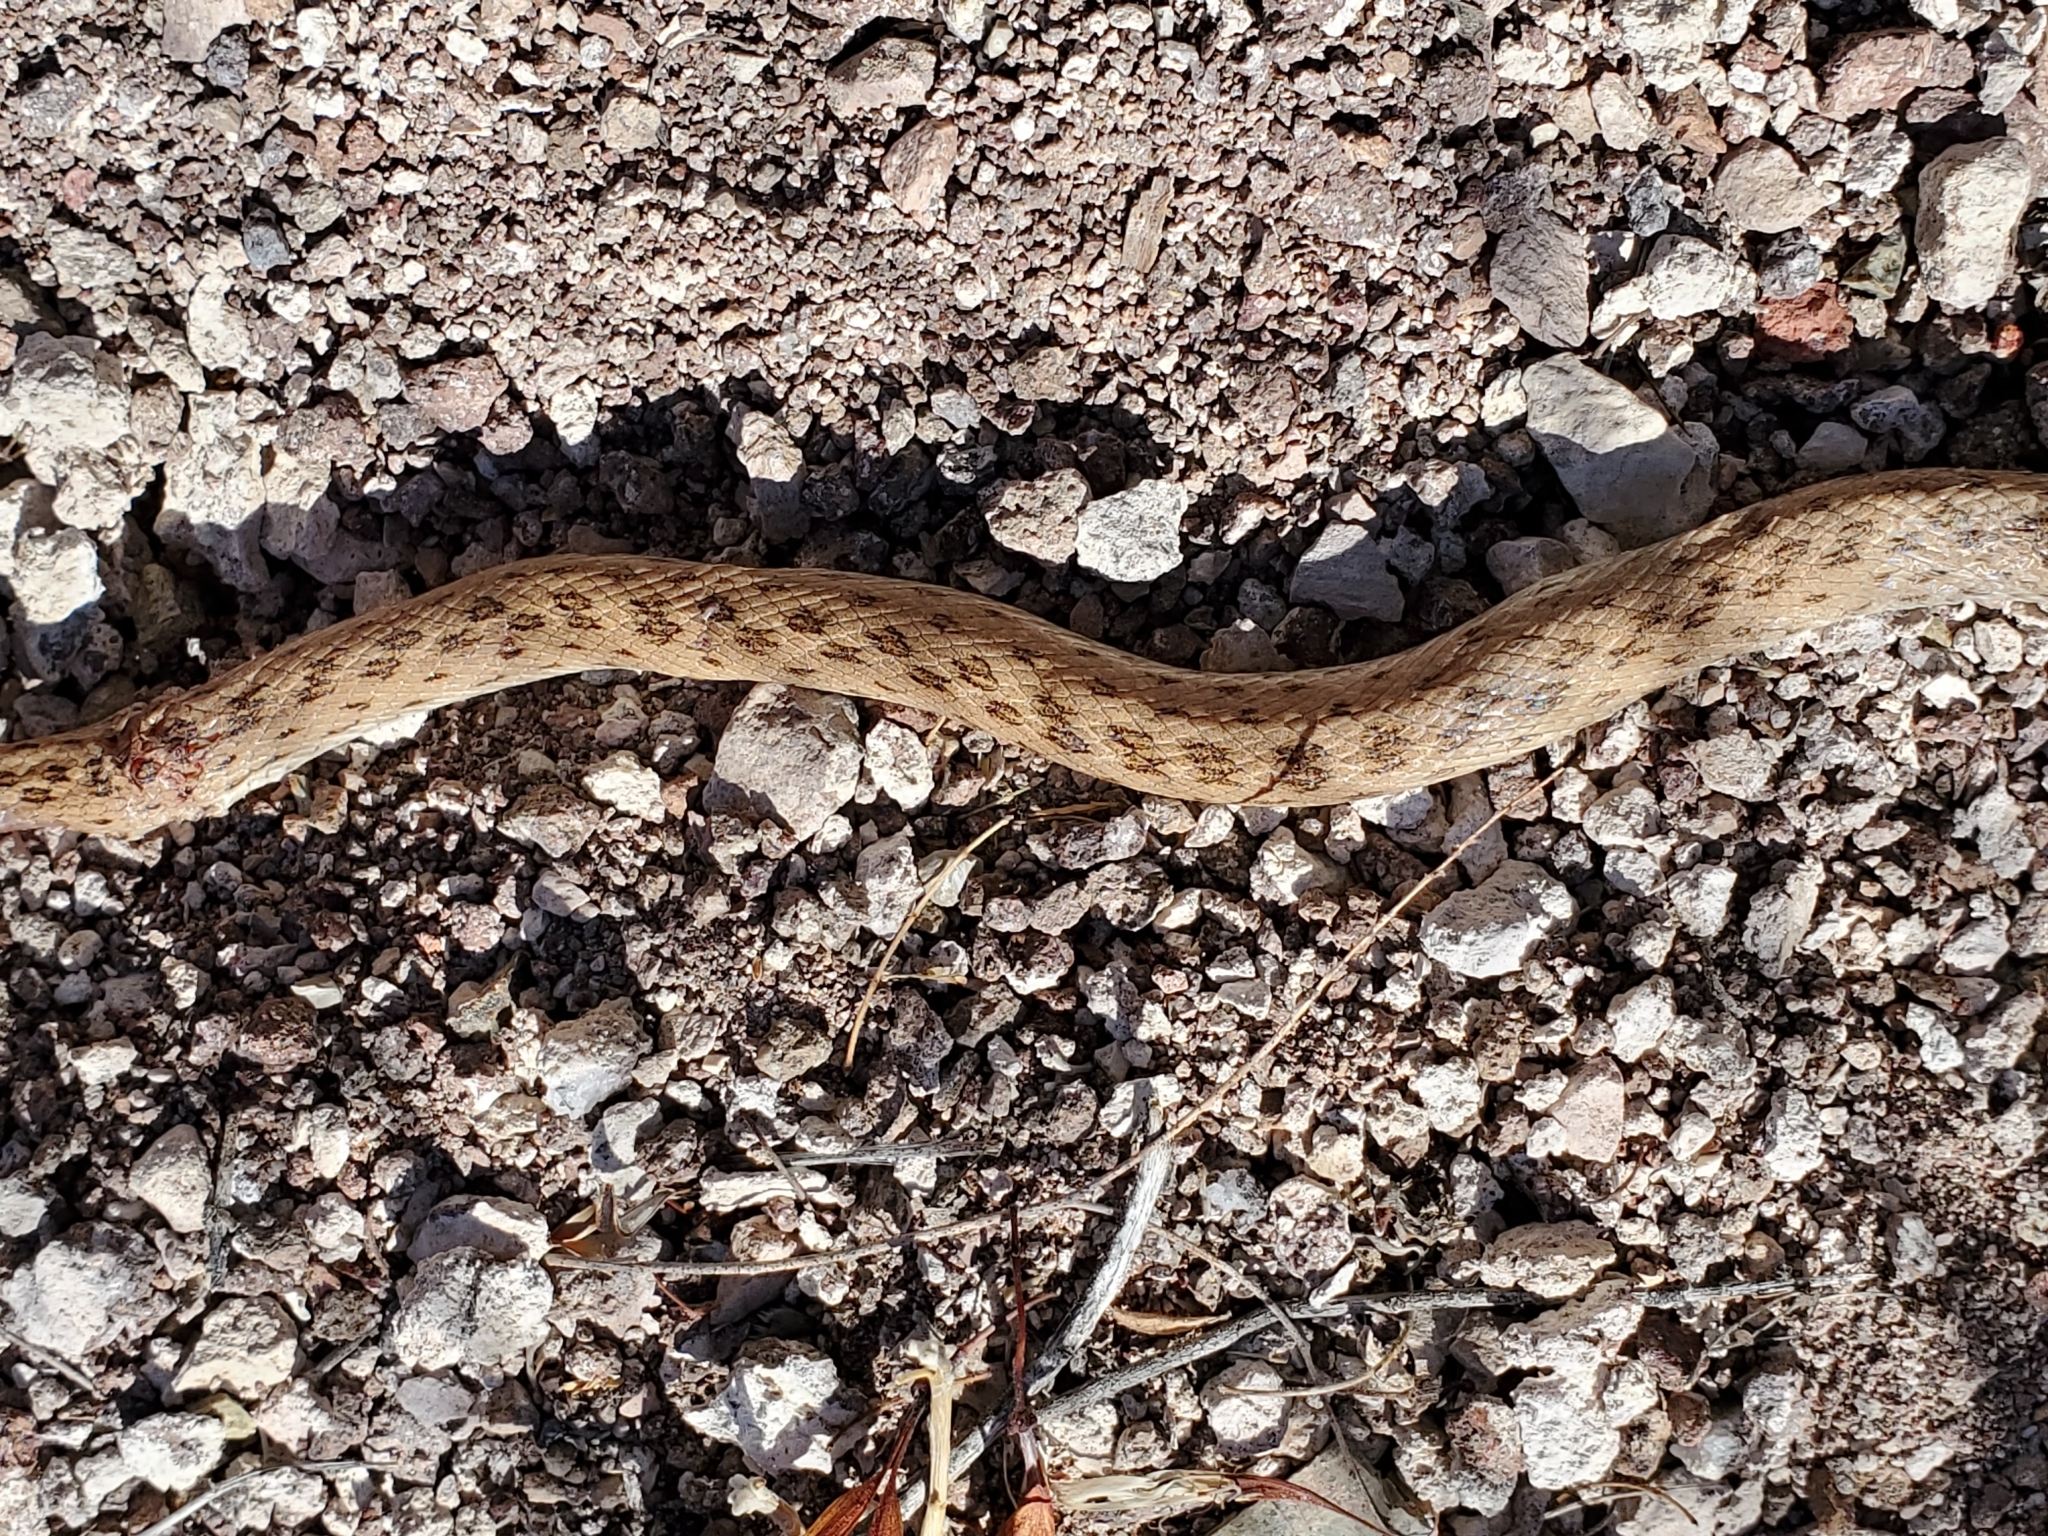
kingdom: Animalia
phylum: Chordata
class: Squamata
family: Colubridae
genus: Hypsiglena
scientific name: Hypsiglena chlorophaea
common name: Desert nightsnake
